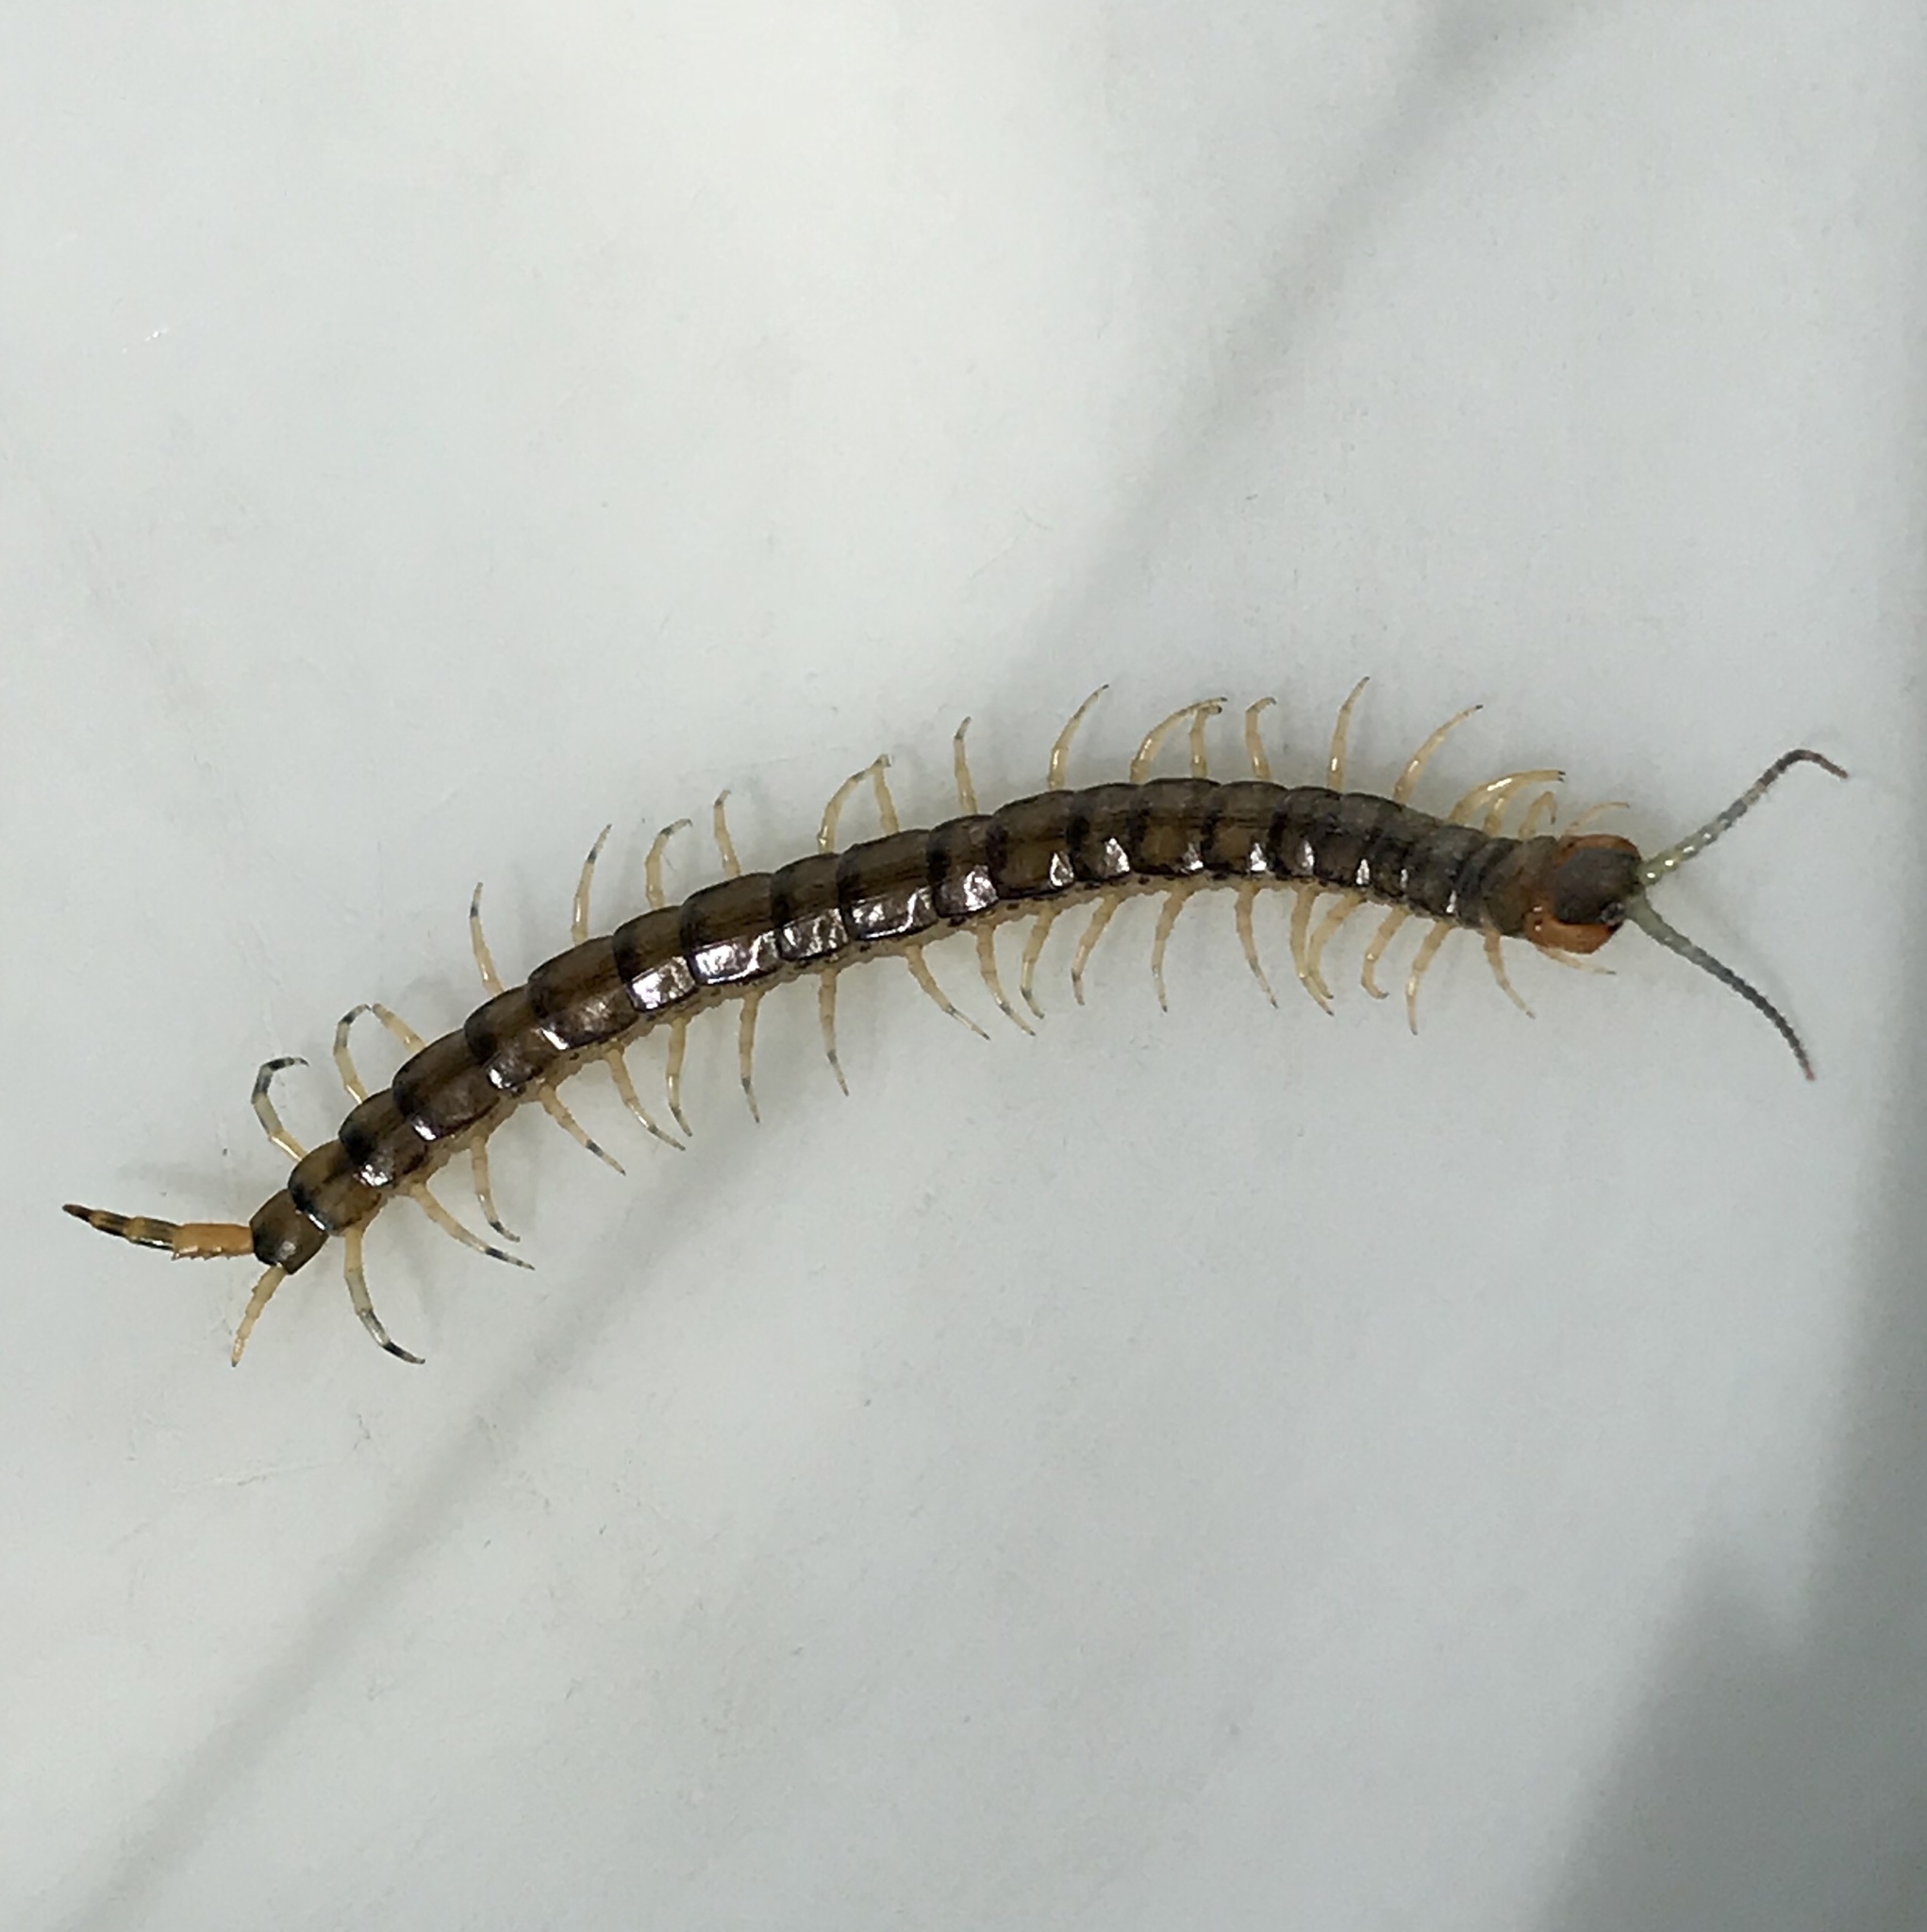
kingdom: Animalia
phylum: Arthropoda
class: Chilopoda
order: Scolopendromorpha
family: Scolopendridae
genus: Hemiscolopendra
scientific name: Hemiscolopendra marginata
